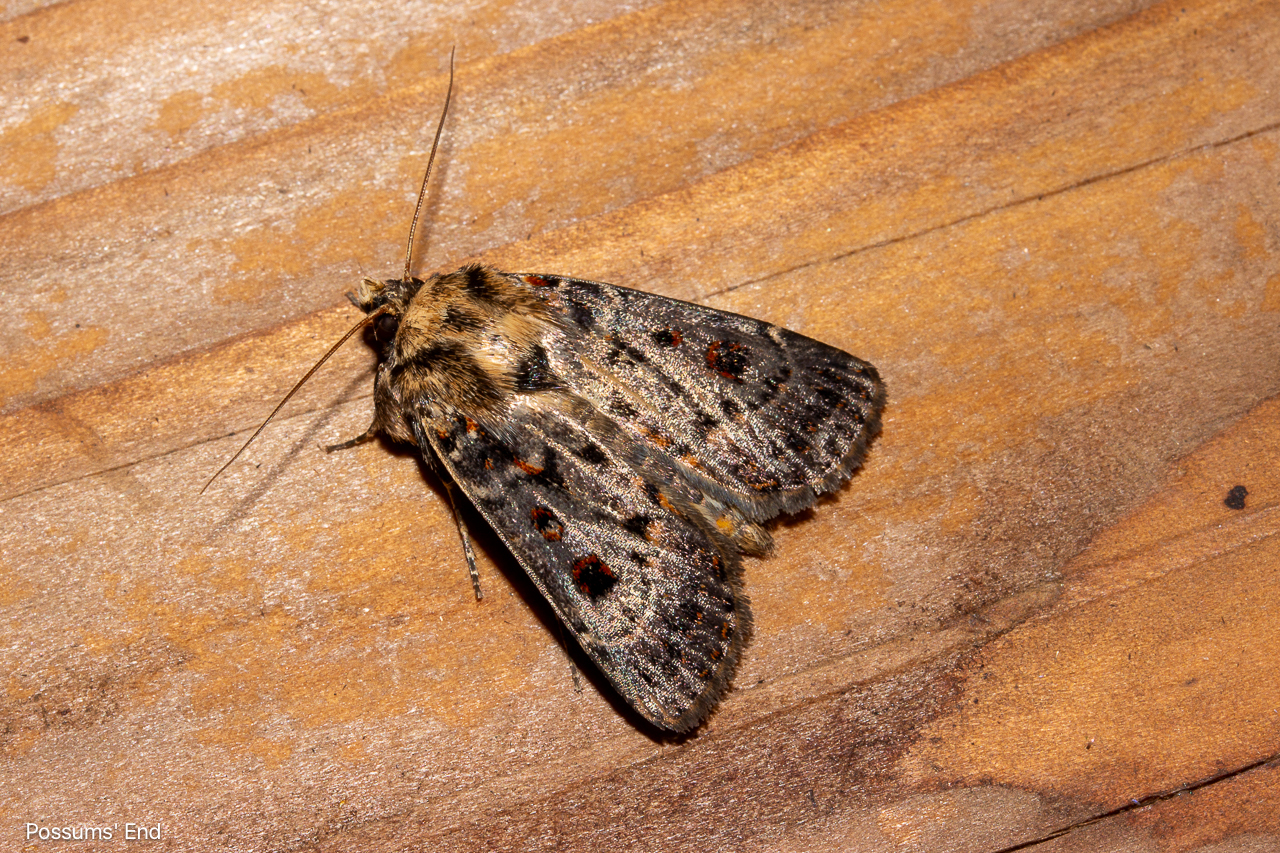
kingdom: Animalia
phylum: Arthropoda
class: Insecta
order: Lepidoptera
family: Noctuidae
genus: Proteuxoa
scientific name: Proteuxoa sanguinipuncta
